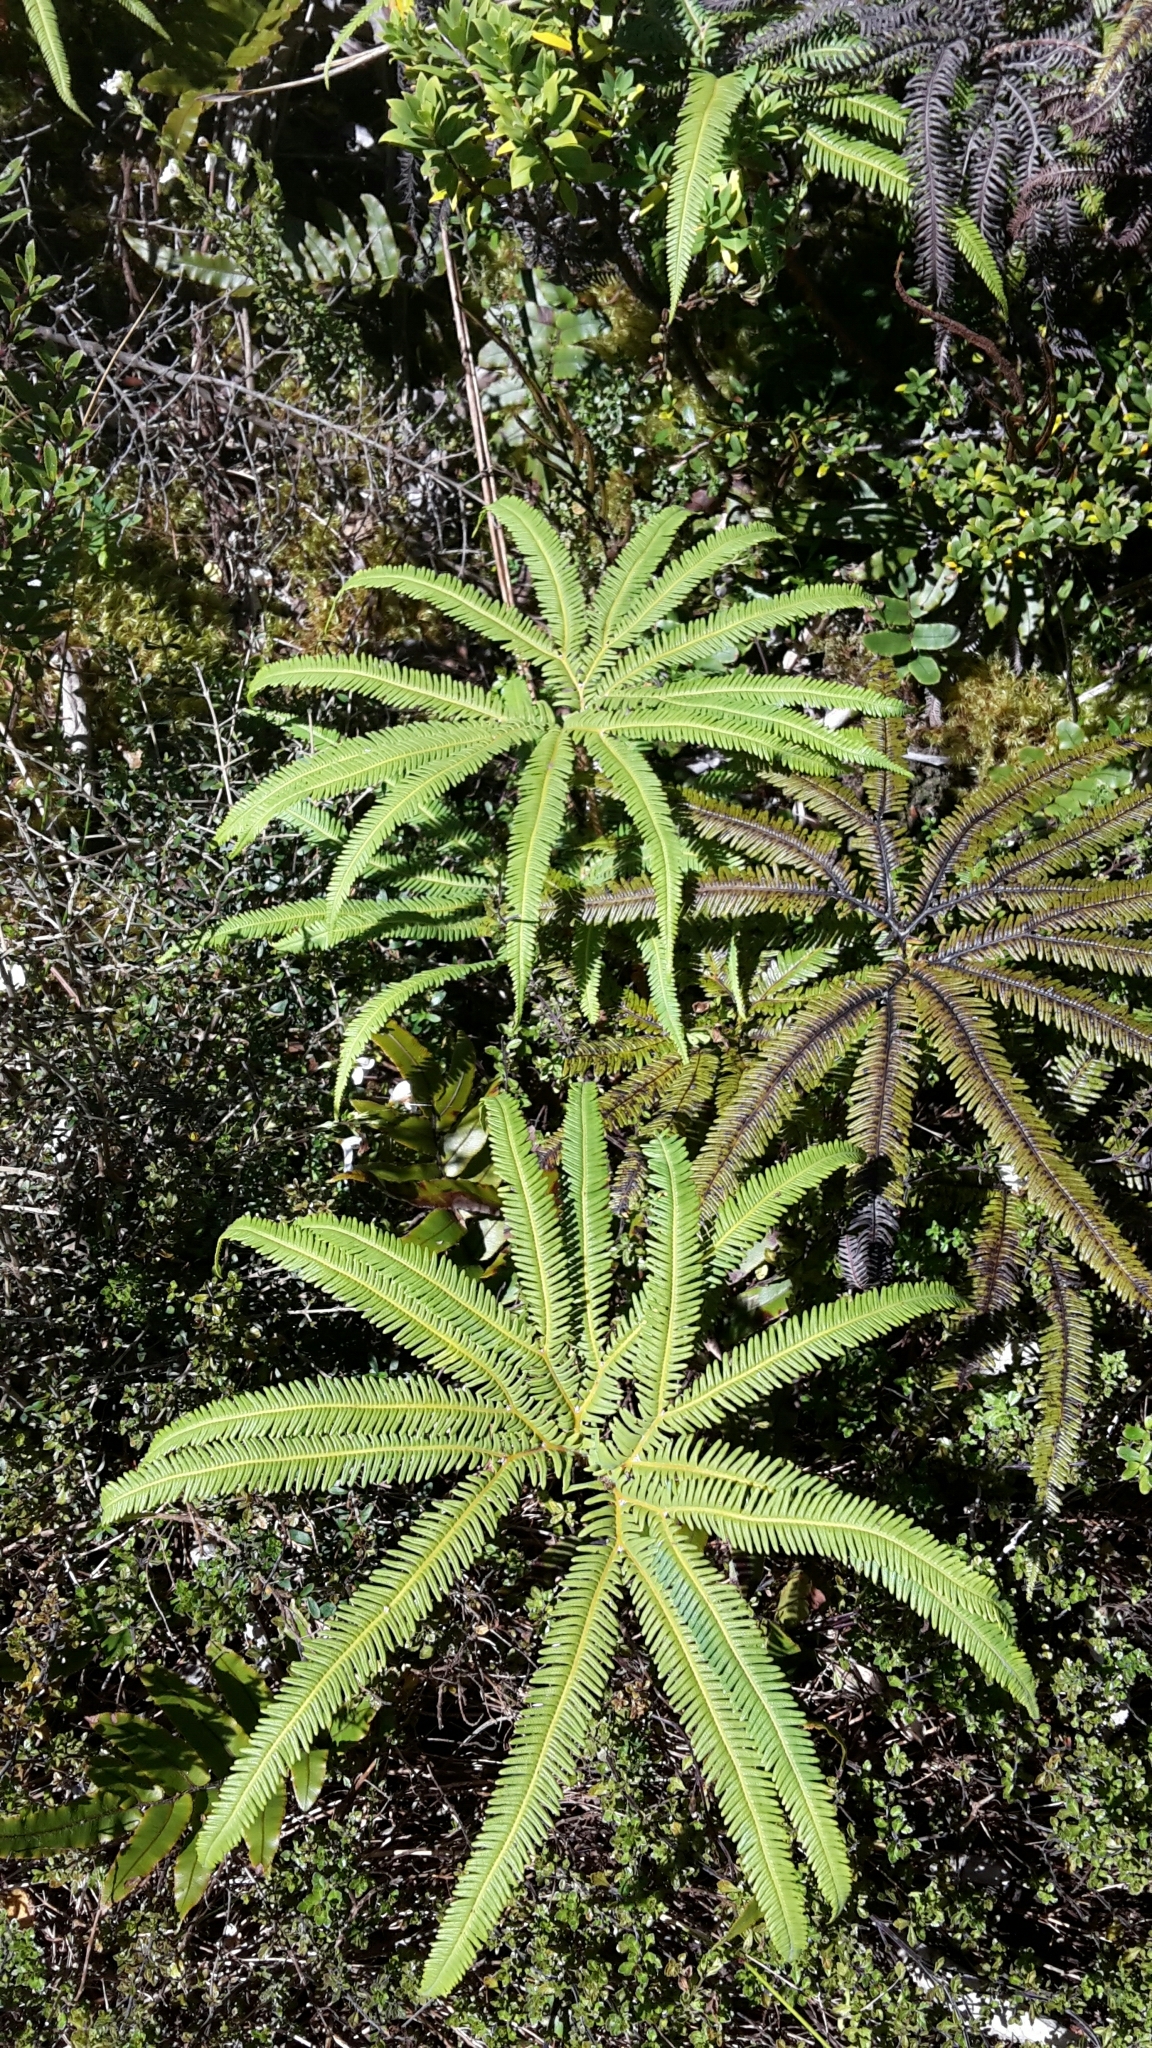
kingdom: Plantae
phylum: Tracheophyta
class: Polypodiopsida
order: Gleicheniales
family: Gleicheniaceae
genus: Sticherus
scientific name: Sticherus cunninghamii
